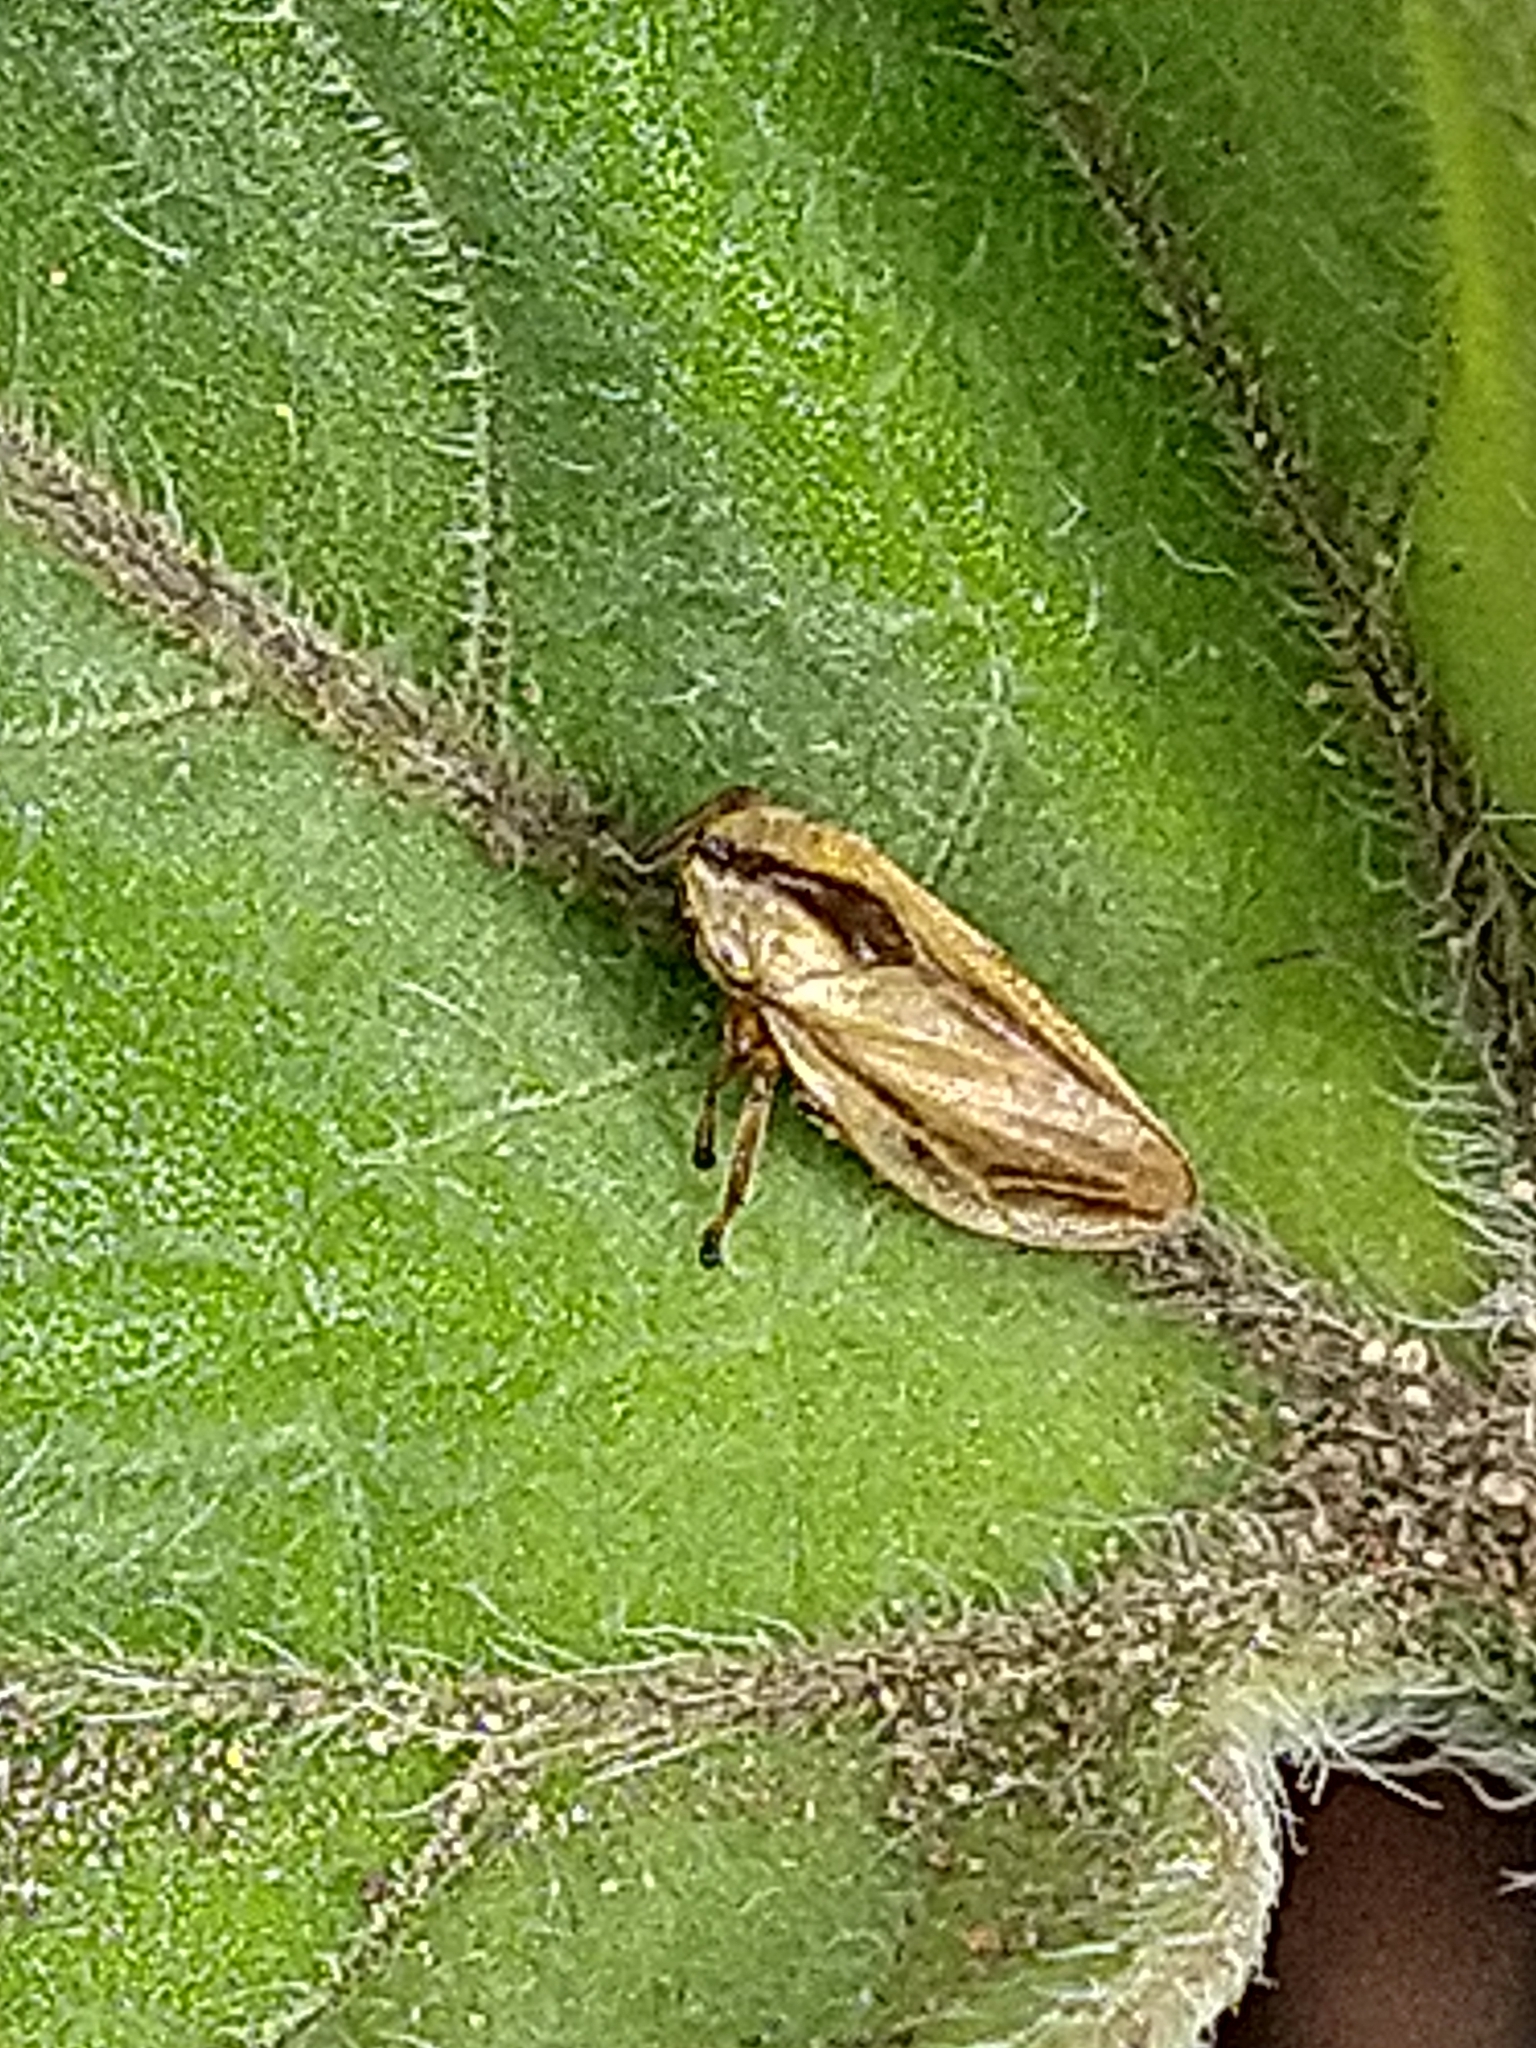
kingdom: Animalia
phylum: Arthropoda
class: Insecta
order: Hemiptera
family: Aphrophoridae
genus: Philaenus
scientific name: Philaenus spumarius
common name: Meadow spittlebug
